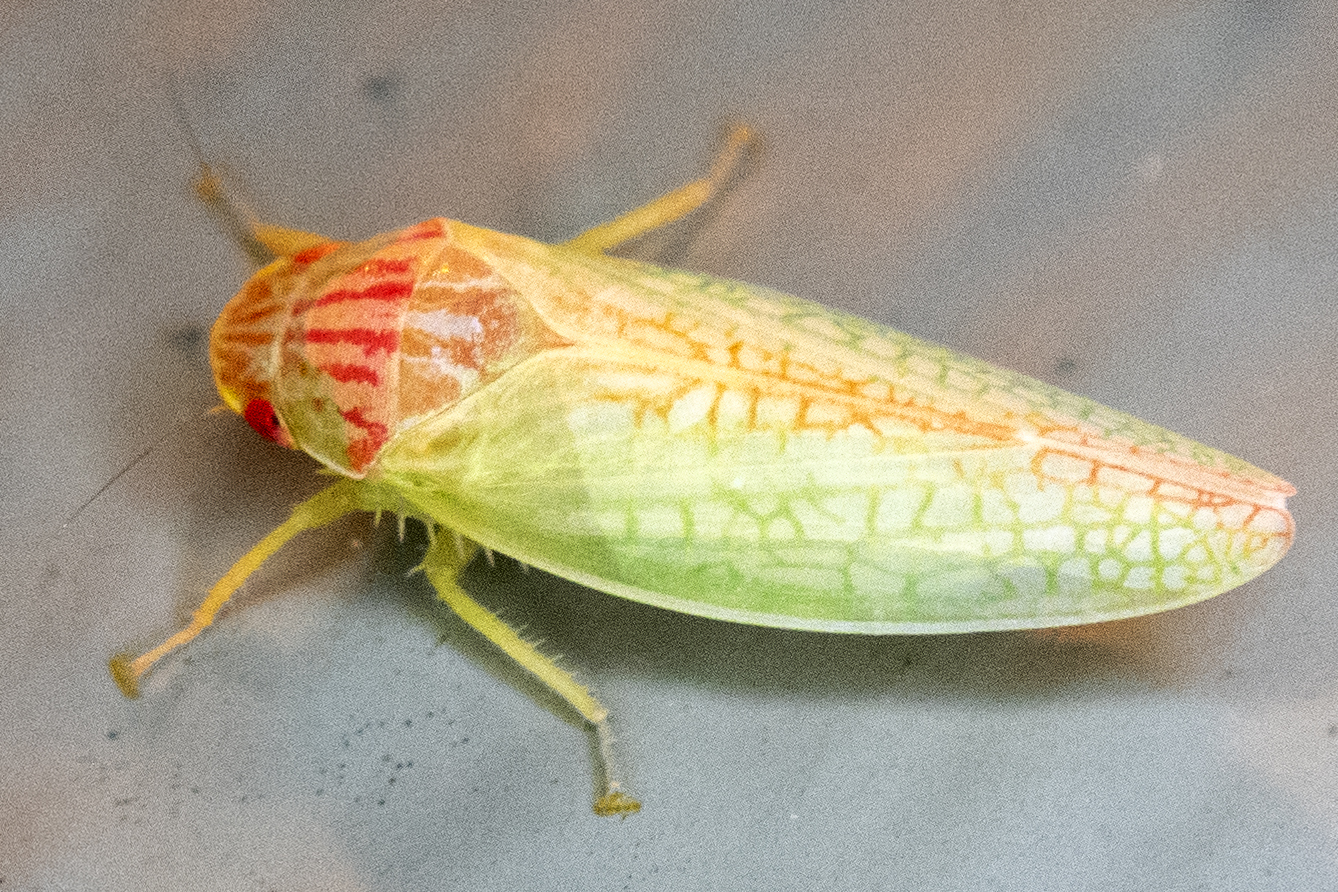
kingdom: Animalia
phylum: Arthropoda
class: Insecta
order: Hemiptera
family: Cicadellidae
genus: Gyponana
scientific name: Gyponana octolineata
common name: Eight-lined leafhopper
